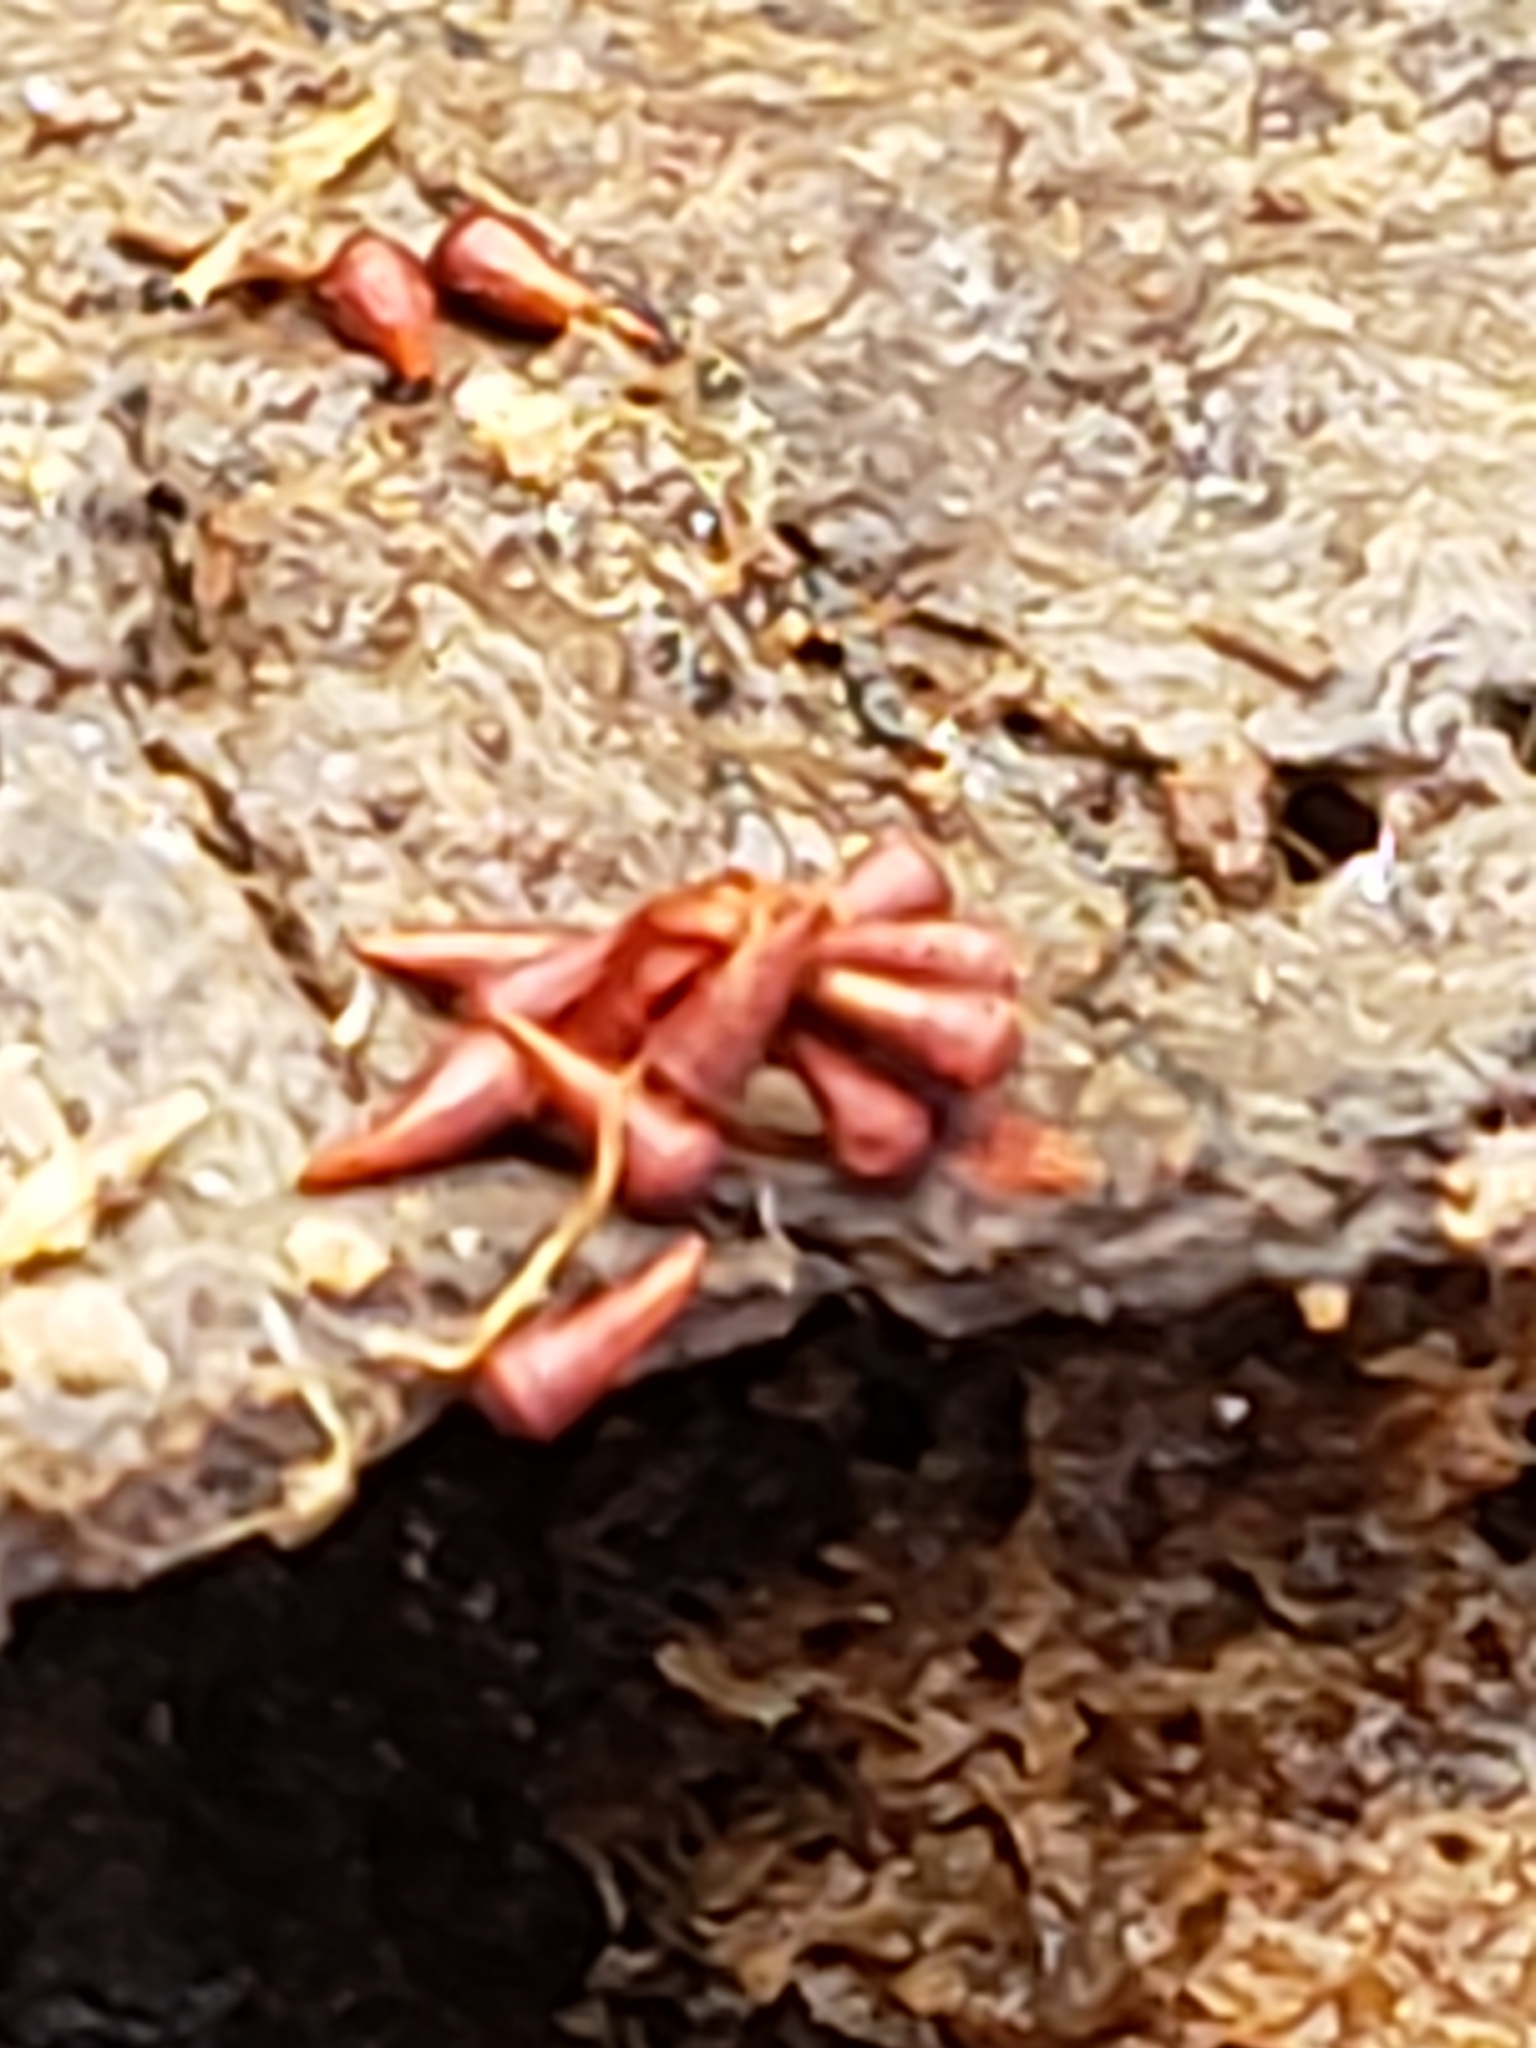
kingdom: Protozoa
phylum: Mycetozoa
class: Myxomycetes
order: Trichiales
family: Trichiaceae
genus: Metatrichia
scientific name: Metatrichia vesparia
